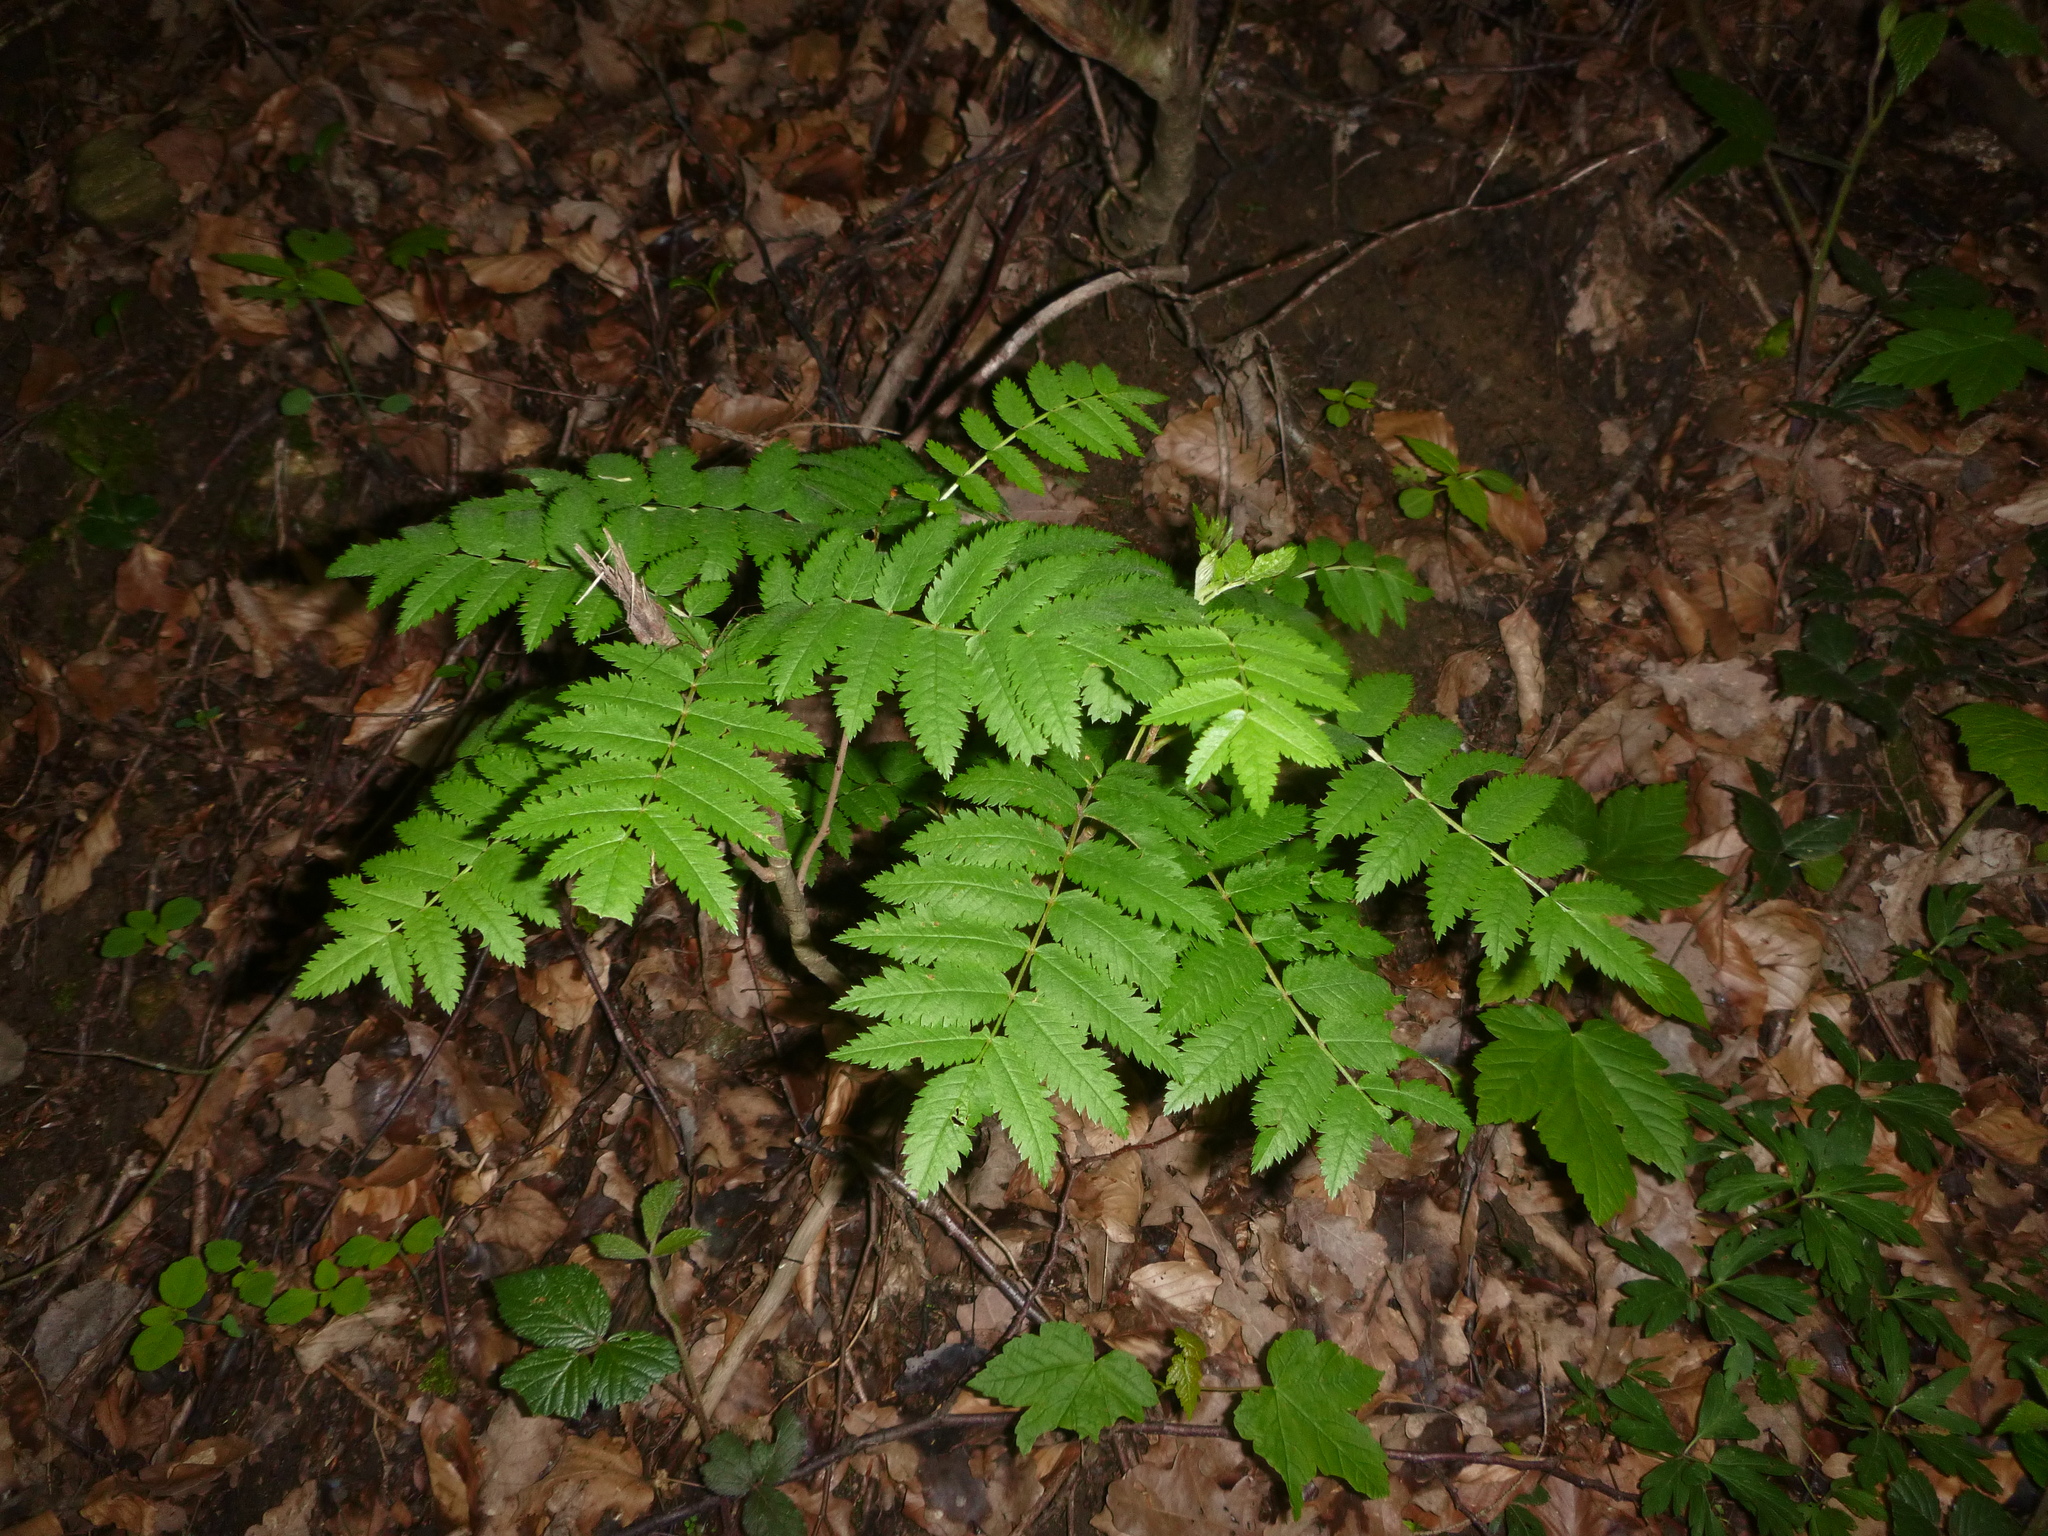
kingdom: Plantae
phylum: Tracheophyta
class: Magnoliopsida
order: Rosales
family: Rosaceae
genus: Sorbus
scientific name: Sorbus aucuparia
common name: Rowan
